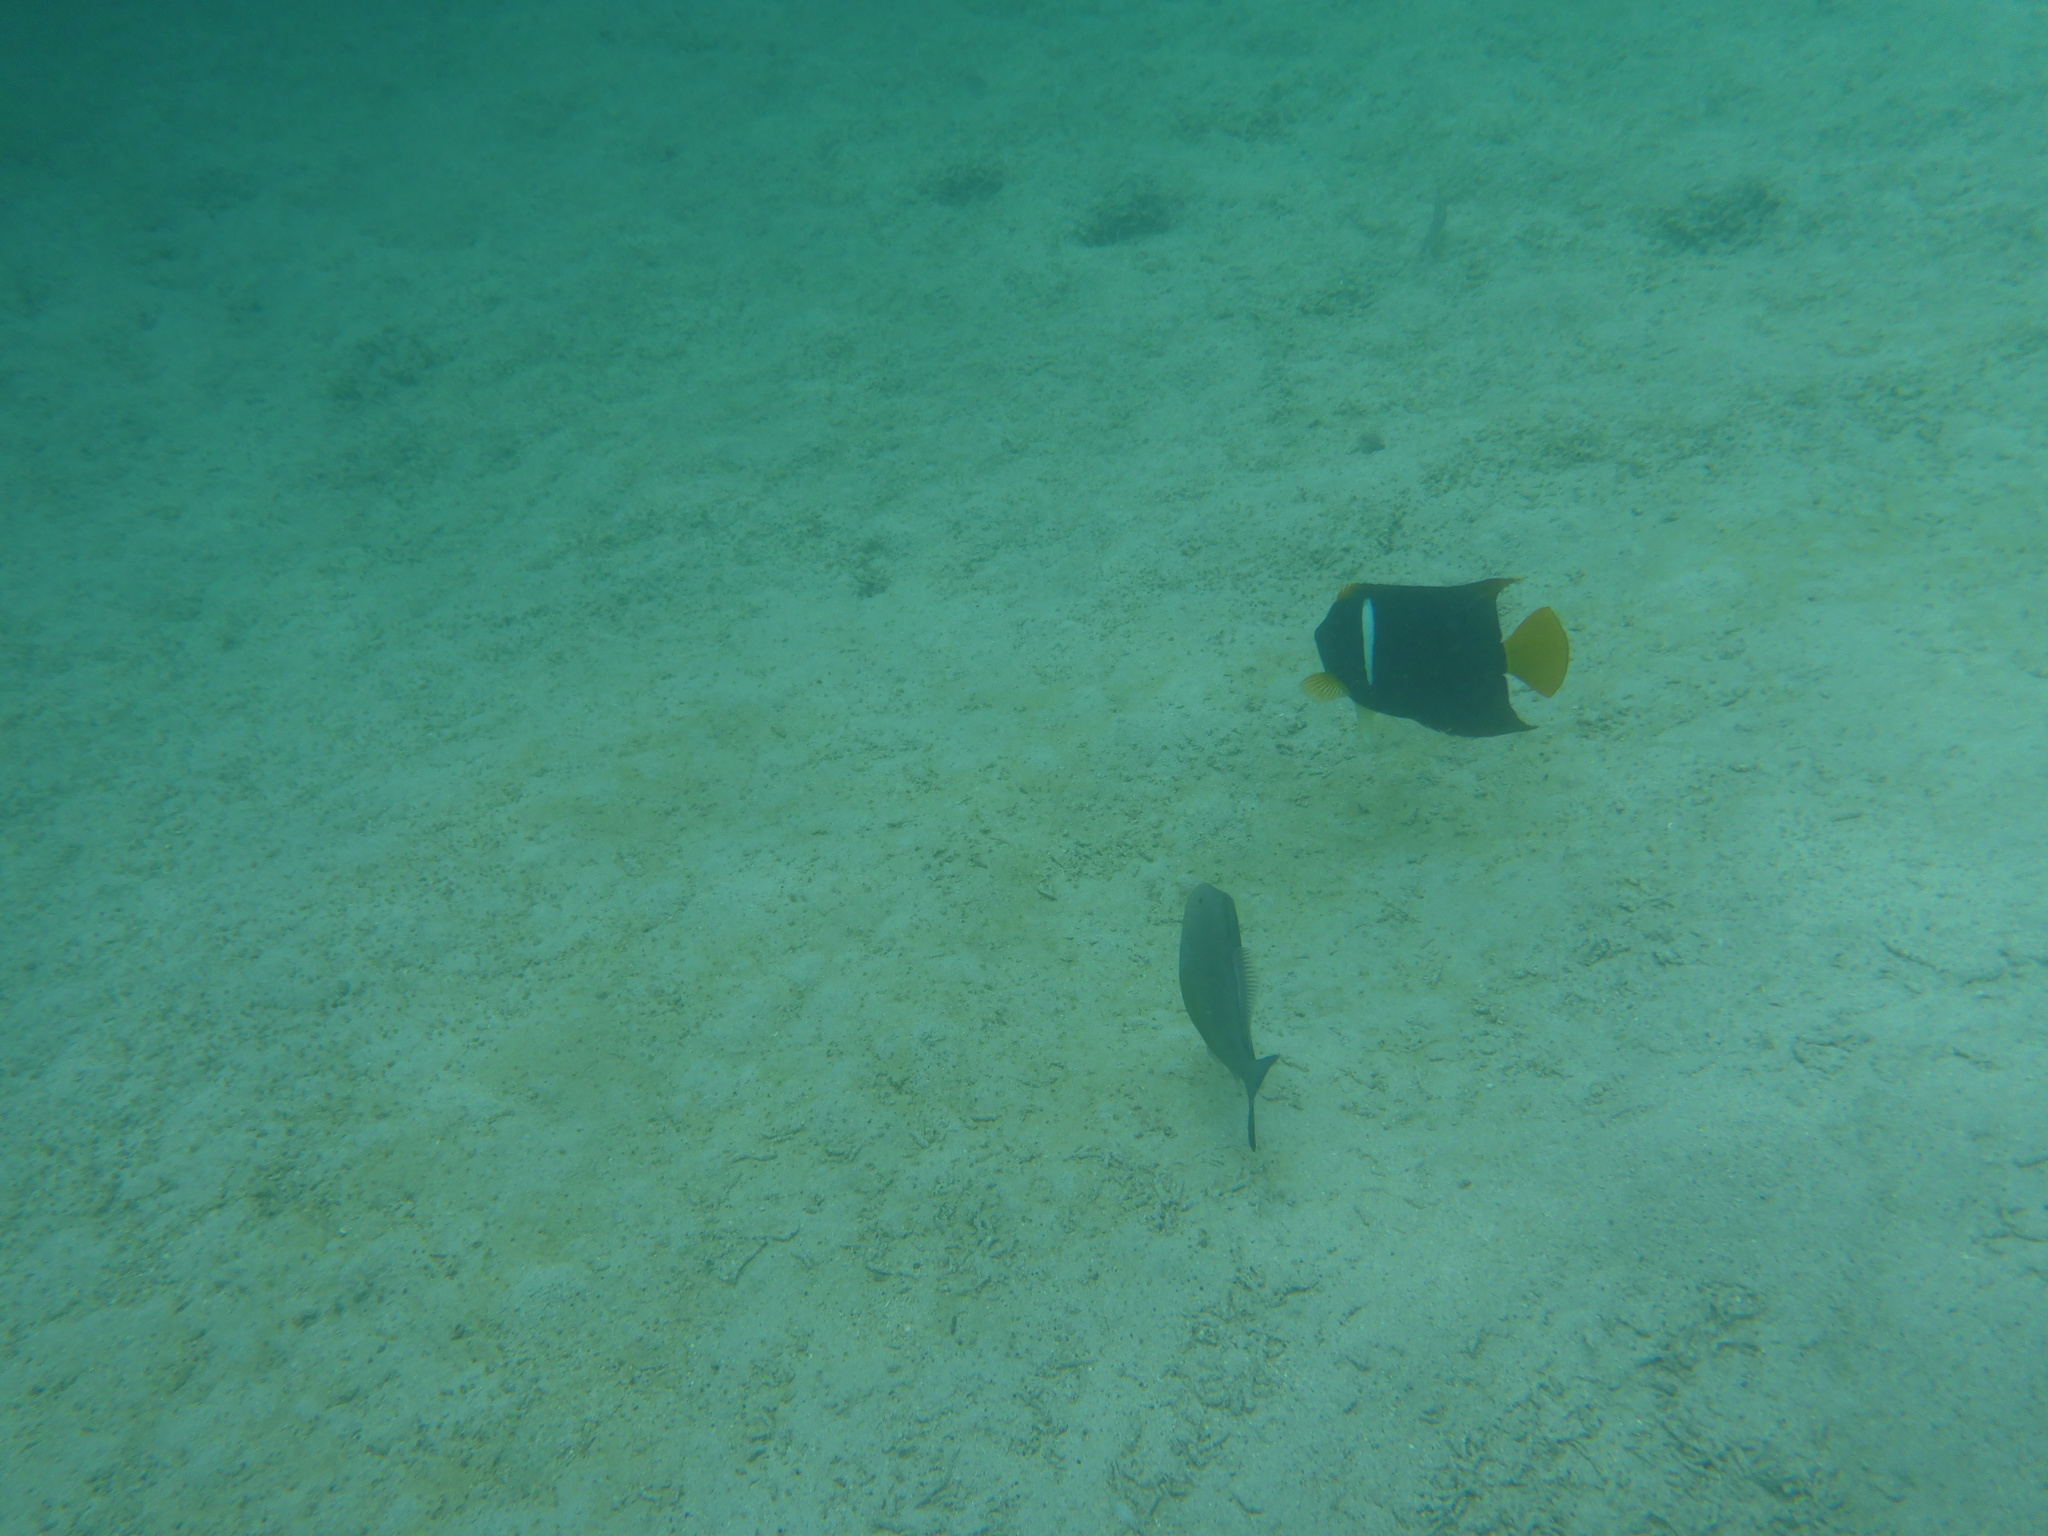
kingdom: Animalia
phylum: Chordata
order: Perciformes
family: Pomacanthidae
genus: Holacanthus
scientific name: Holacanthus passer
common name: King angelfish
